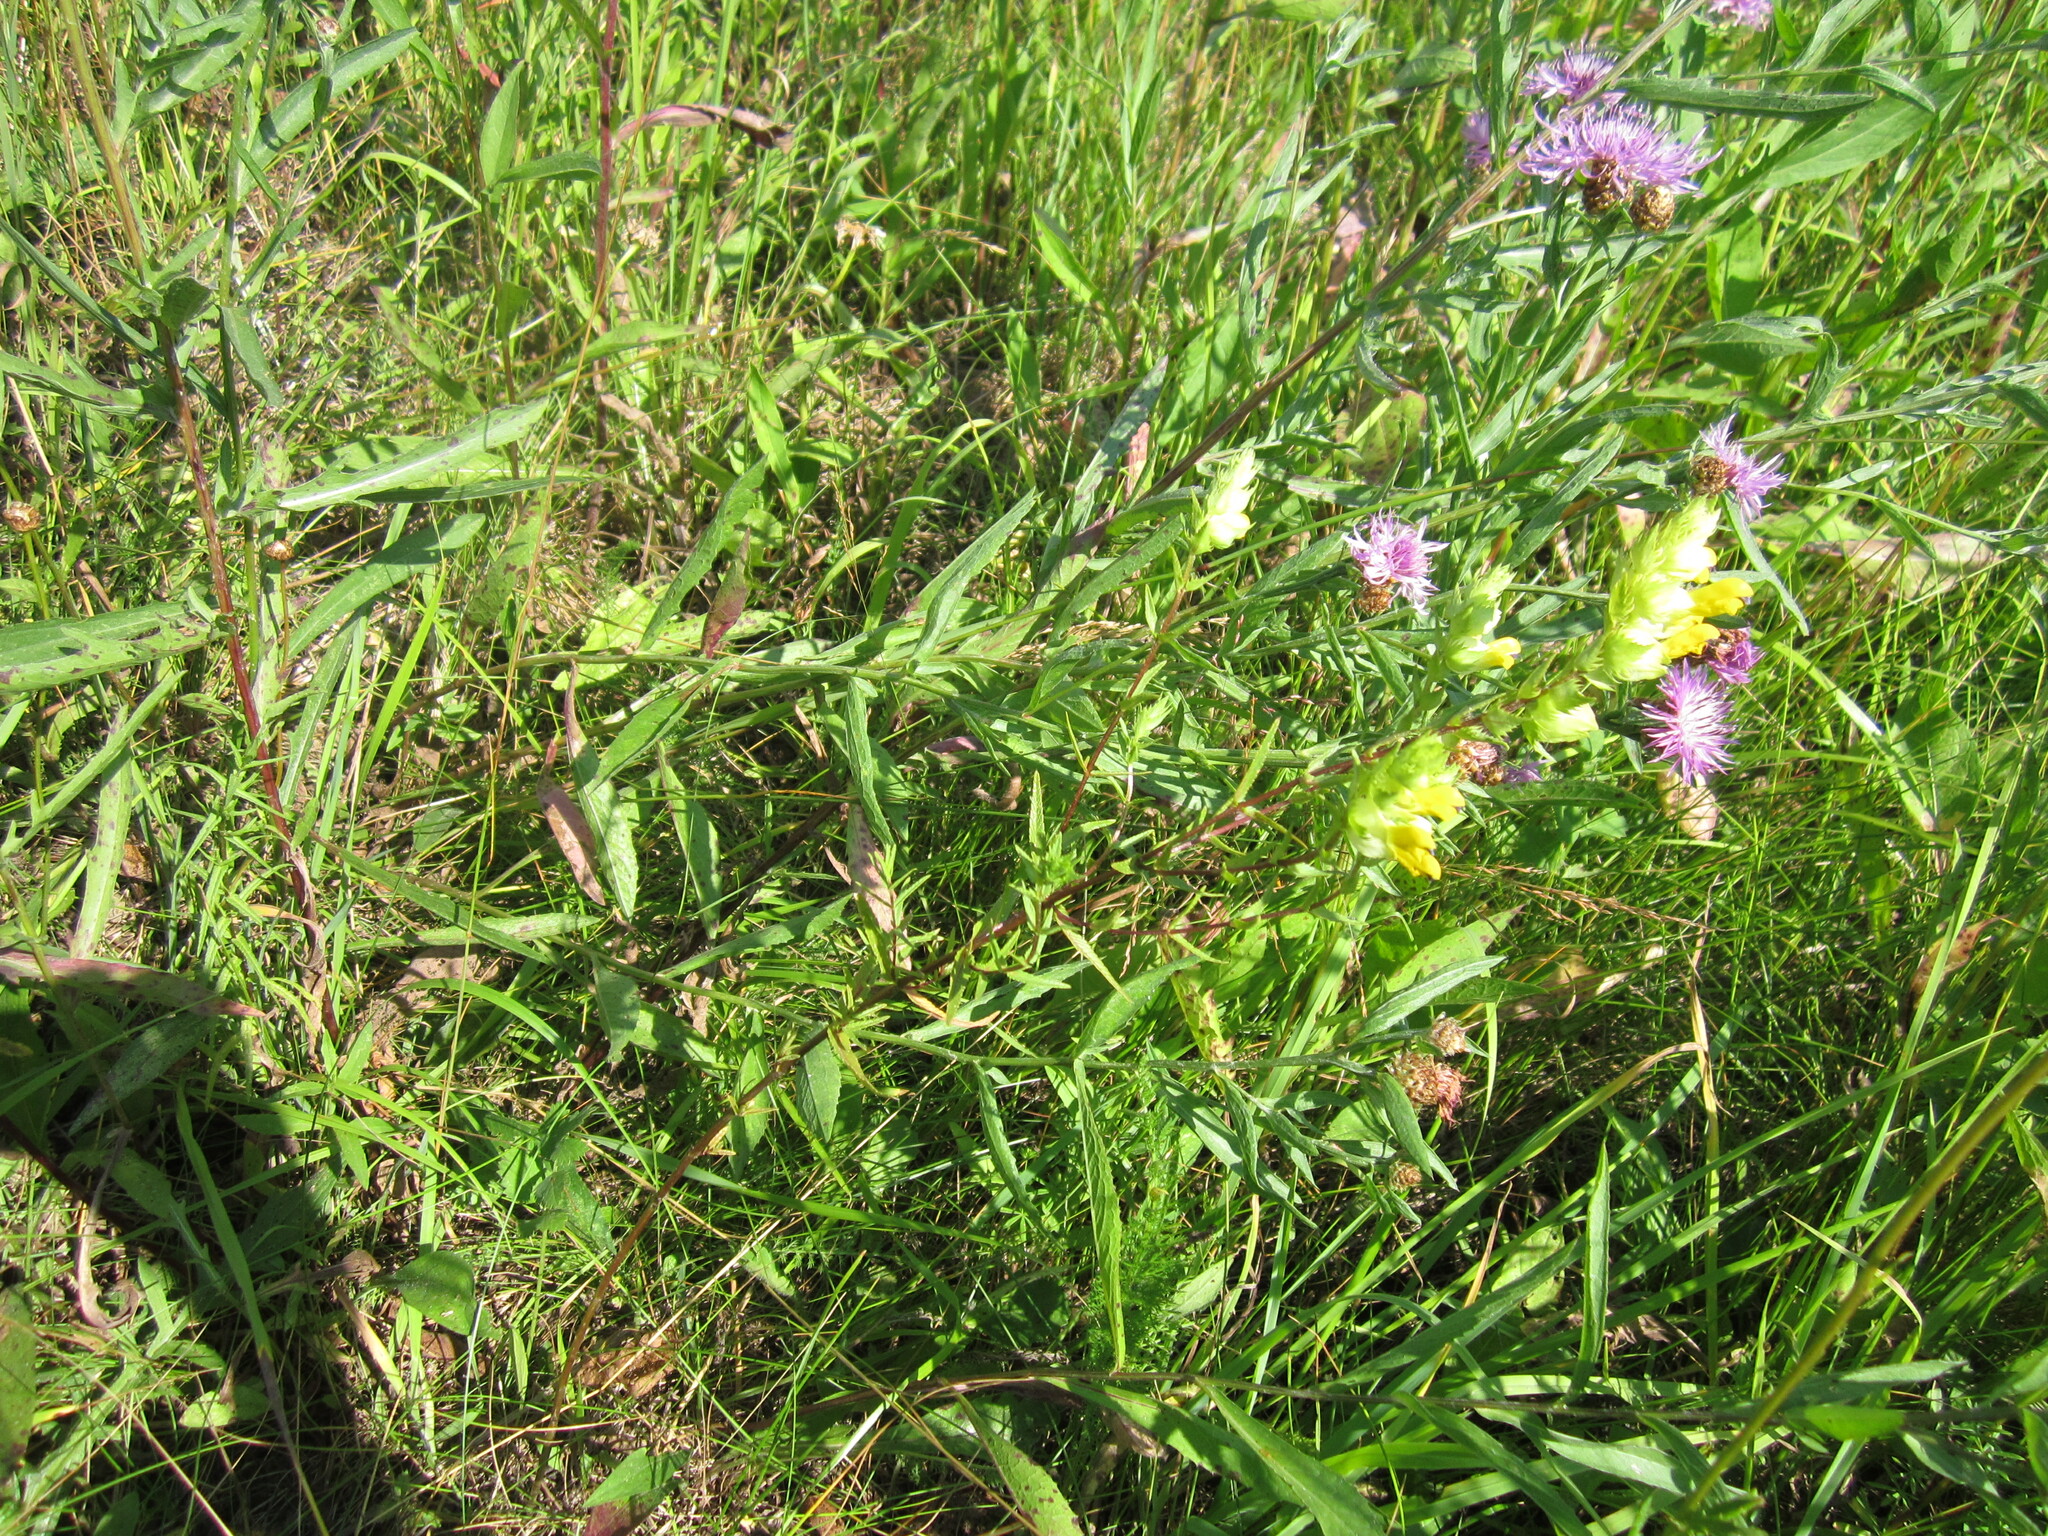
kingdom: Plantae
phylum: Tracheophyta
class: Magnoliopsida
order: Lamiales
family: Orobanchaceae
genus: Rhinanthus
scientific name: Rhinanthus serotinus
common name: Late-flowering yellow rattle
